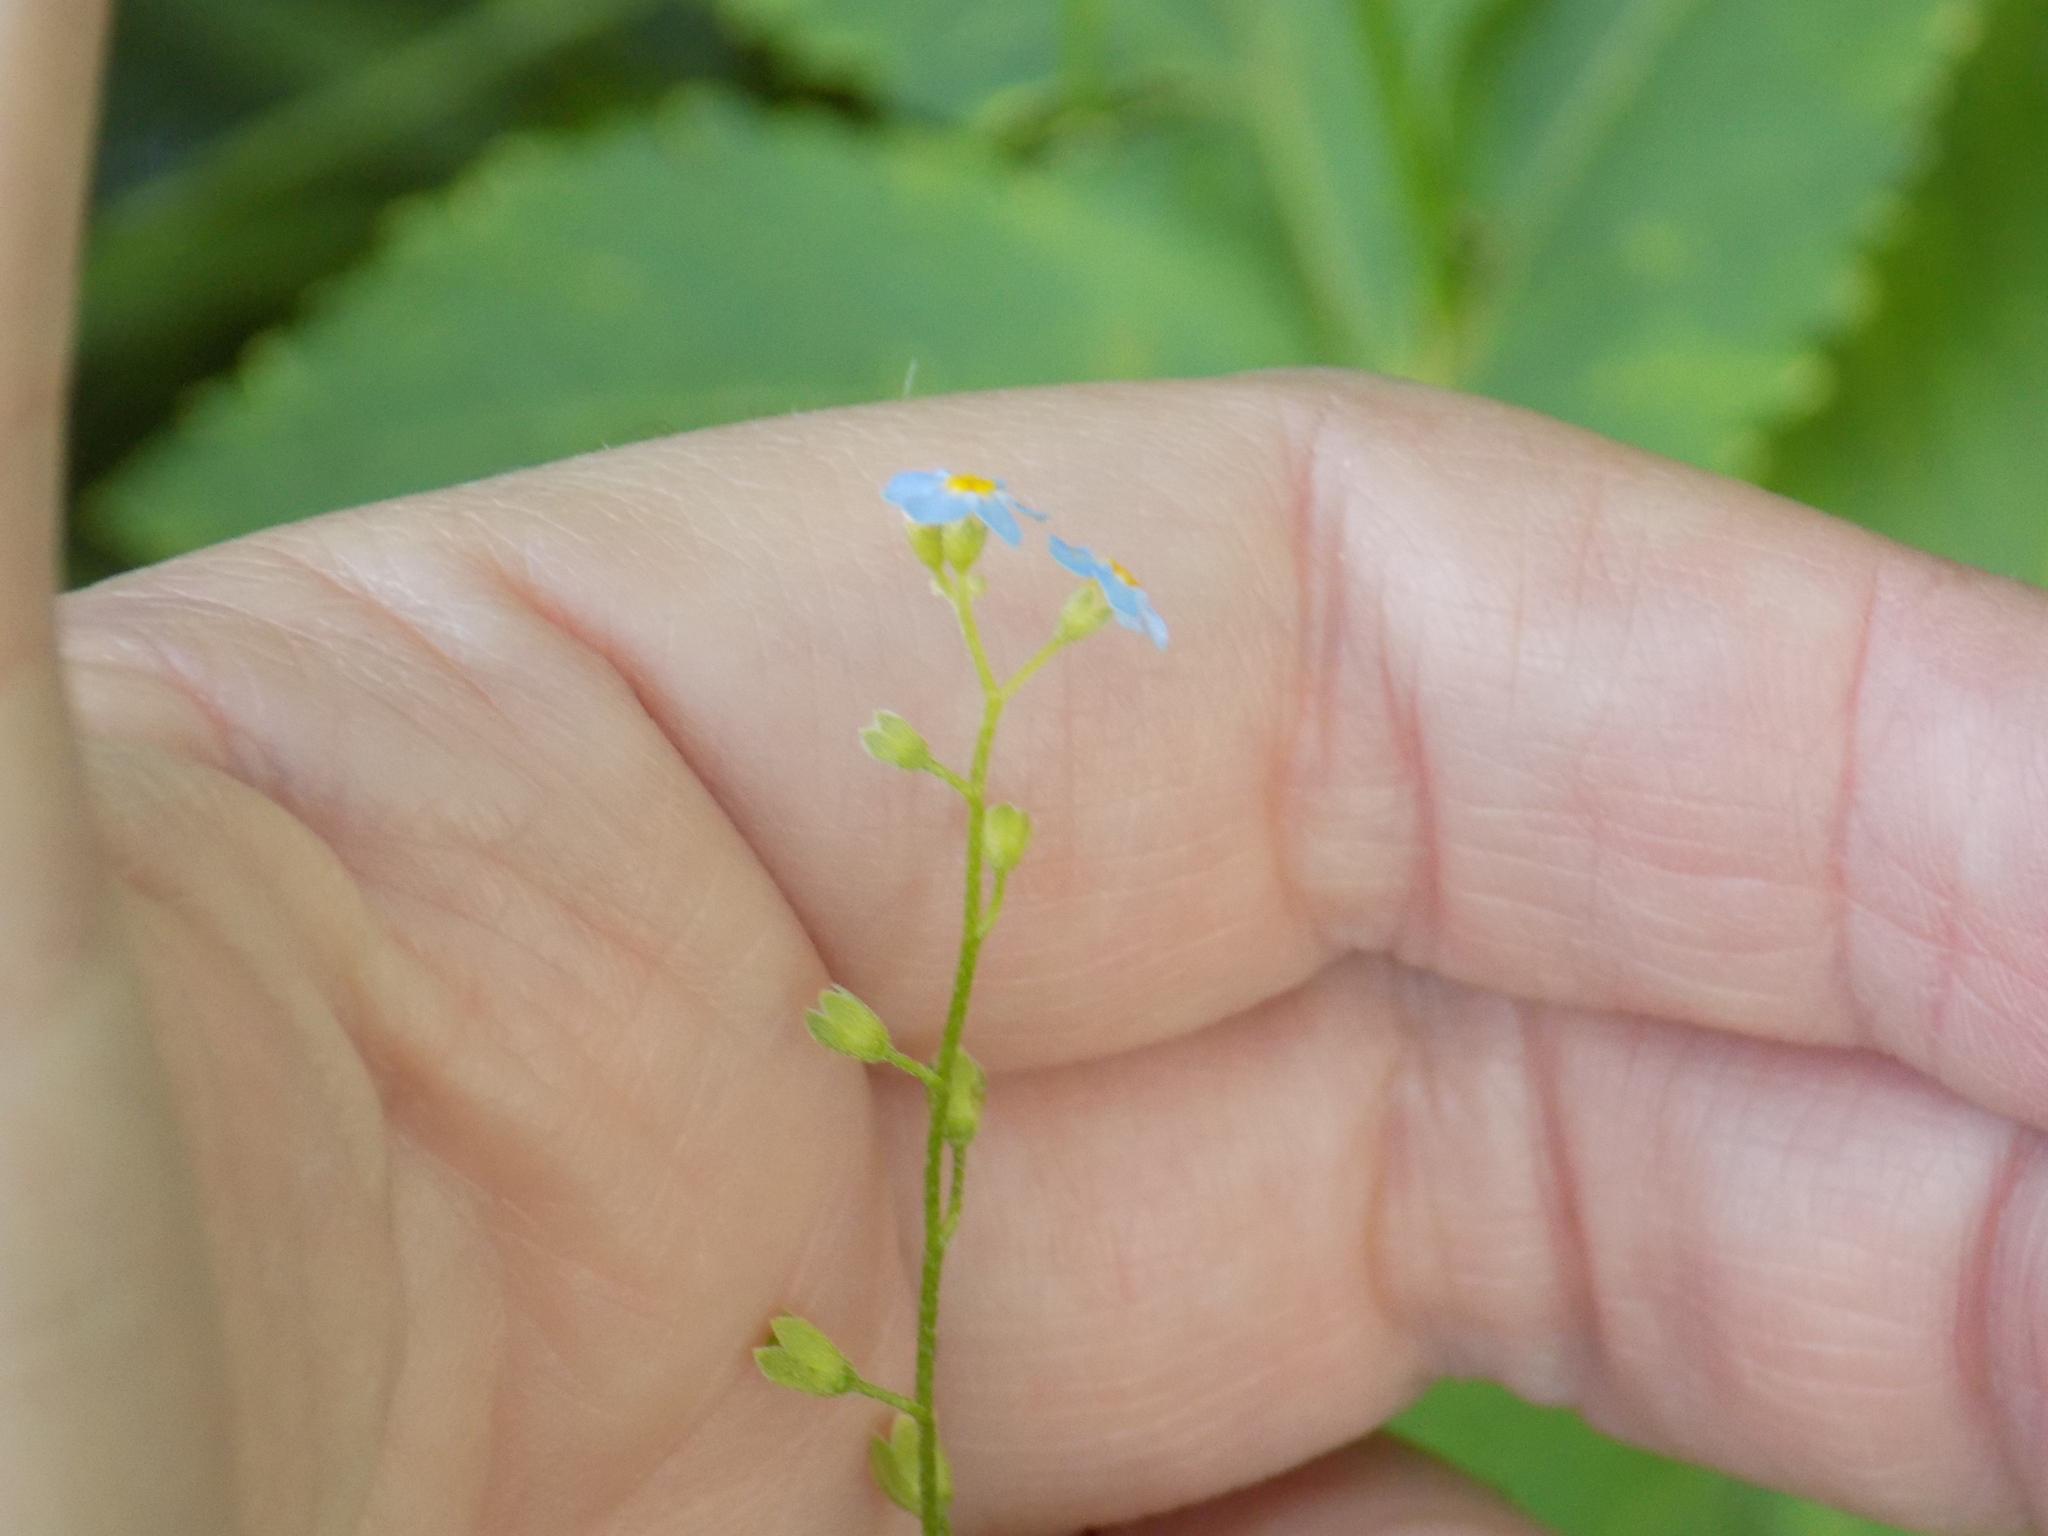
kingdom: Plantae
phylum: Tracheophyta
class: Magnoliopsida
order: Boraginales
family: Boraginaceae
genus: Myosotis
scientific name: Myosotis scorpioides
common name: Water forget-me-not
